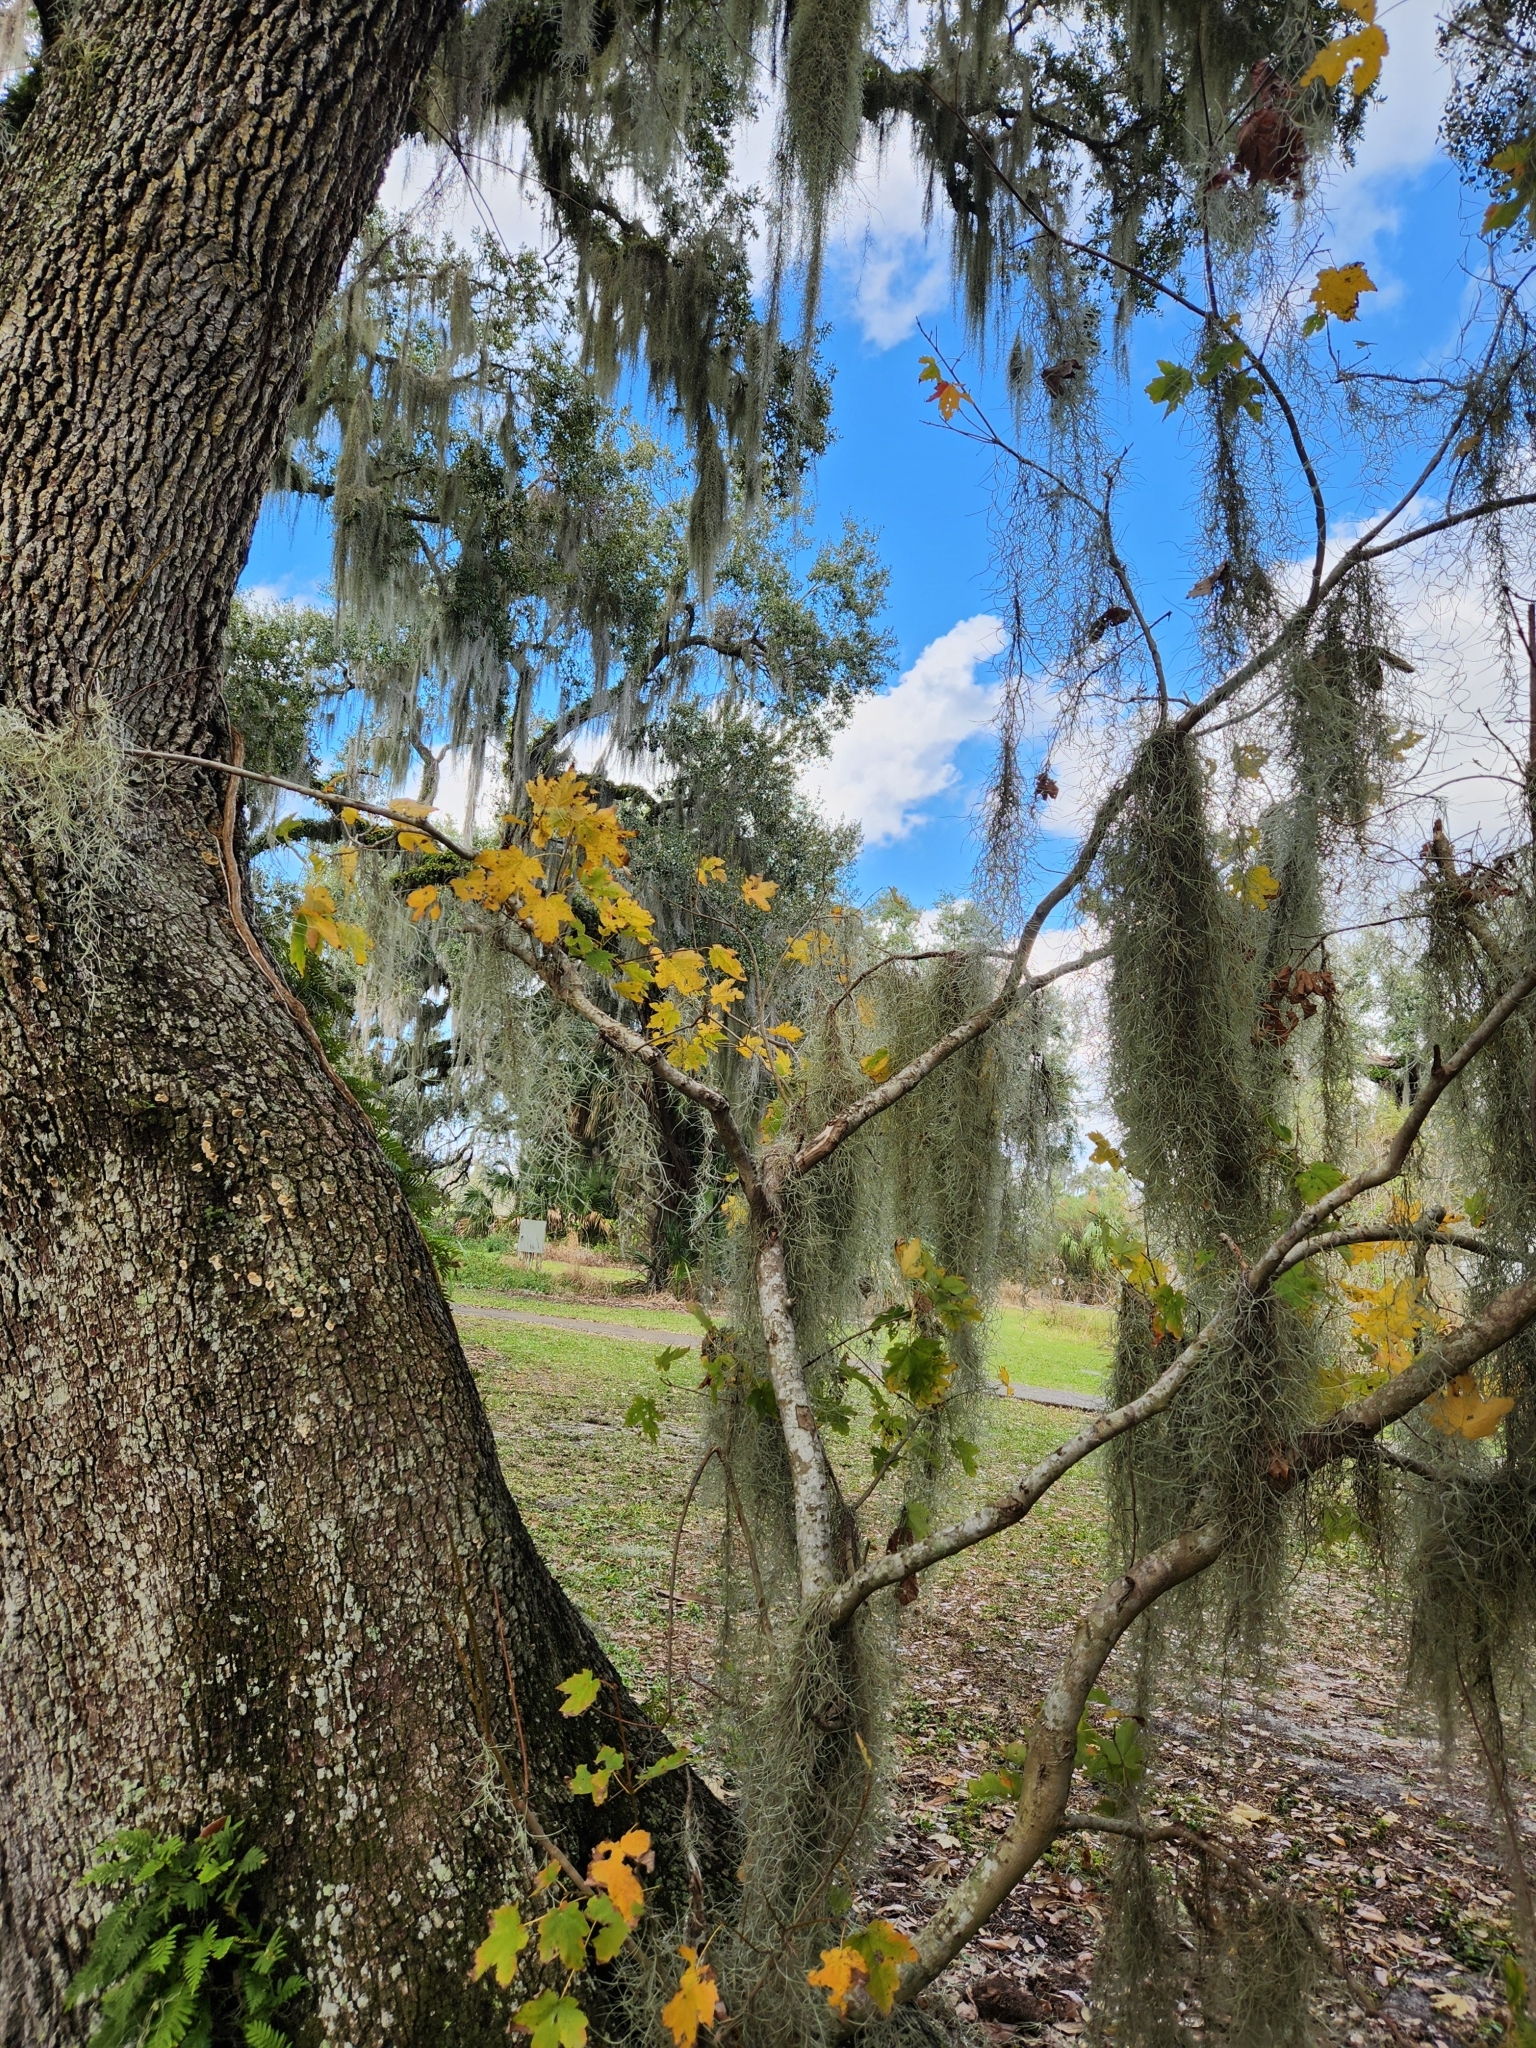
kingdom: Plantae
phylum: Tracheophyta
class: Magnoliopsida
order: Sapindales
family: Sapindaceae
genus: Acer
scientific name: Acer rubrum
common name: Red maple
